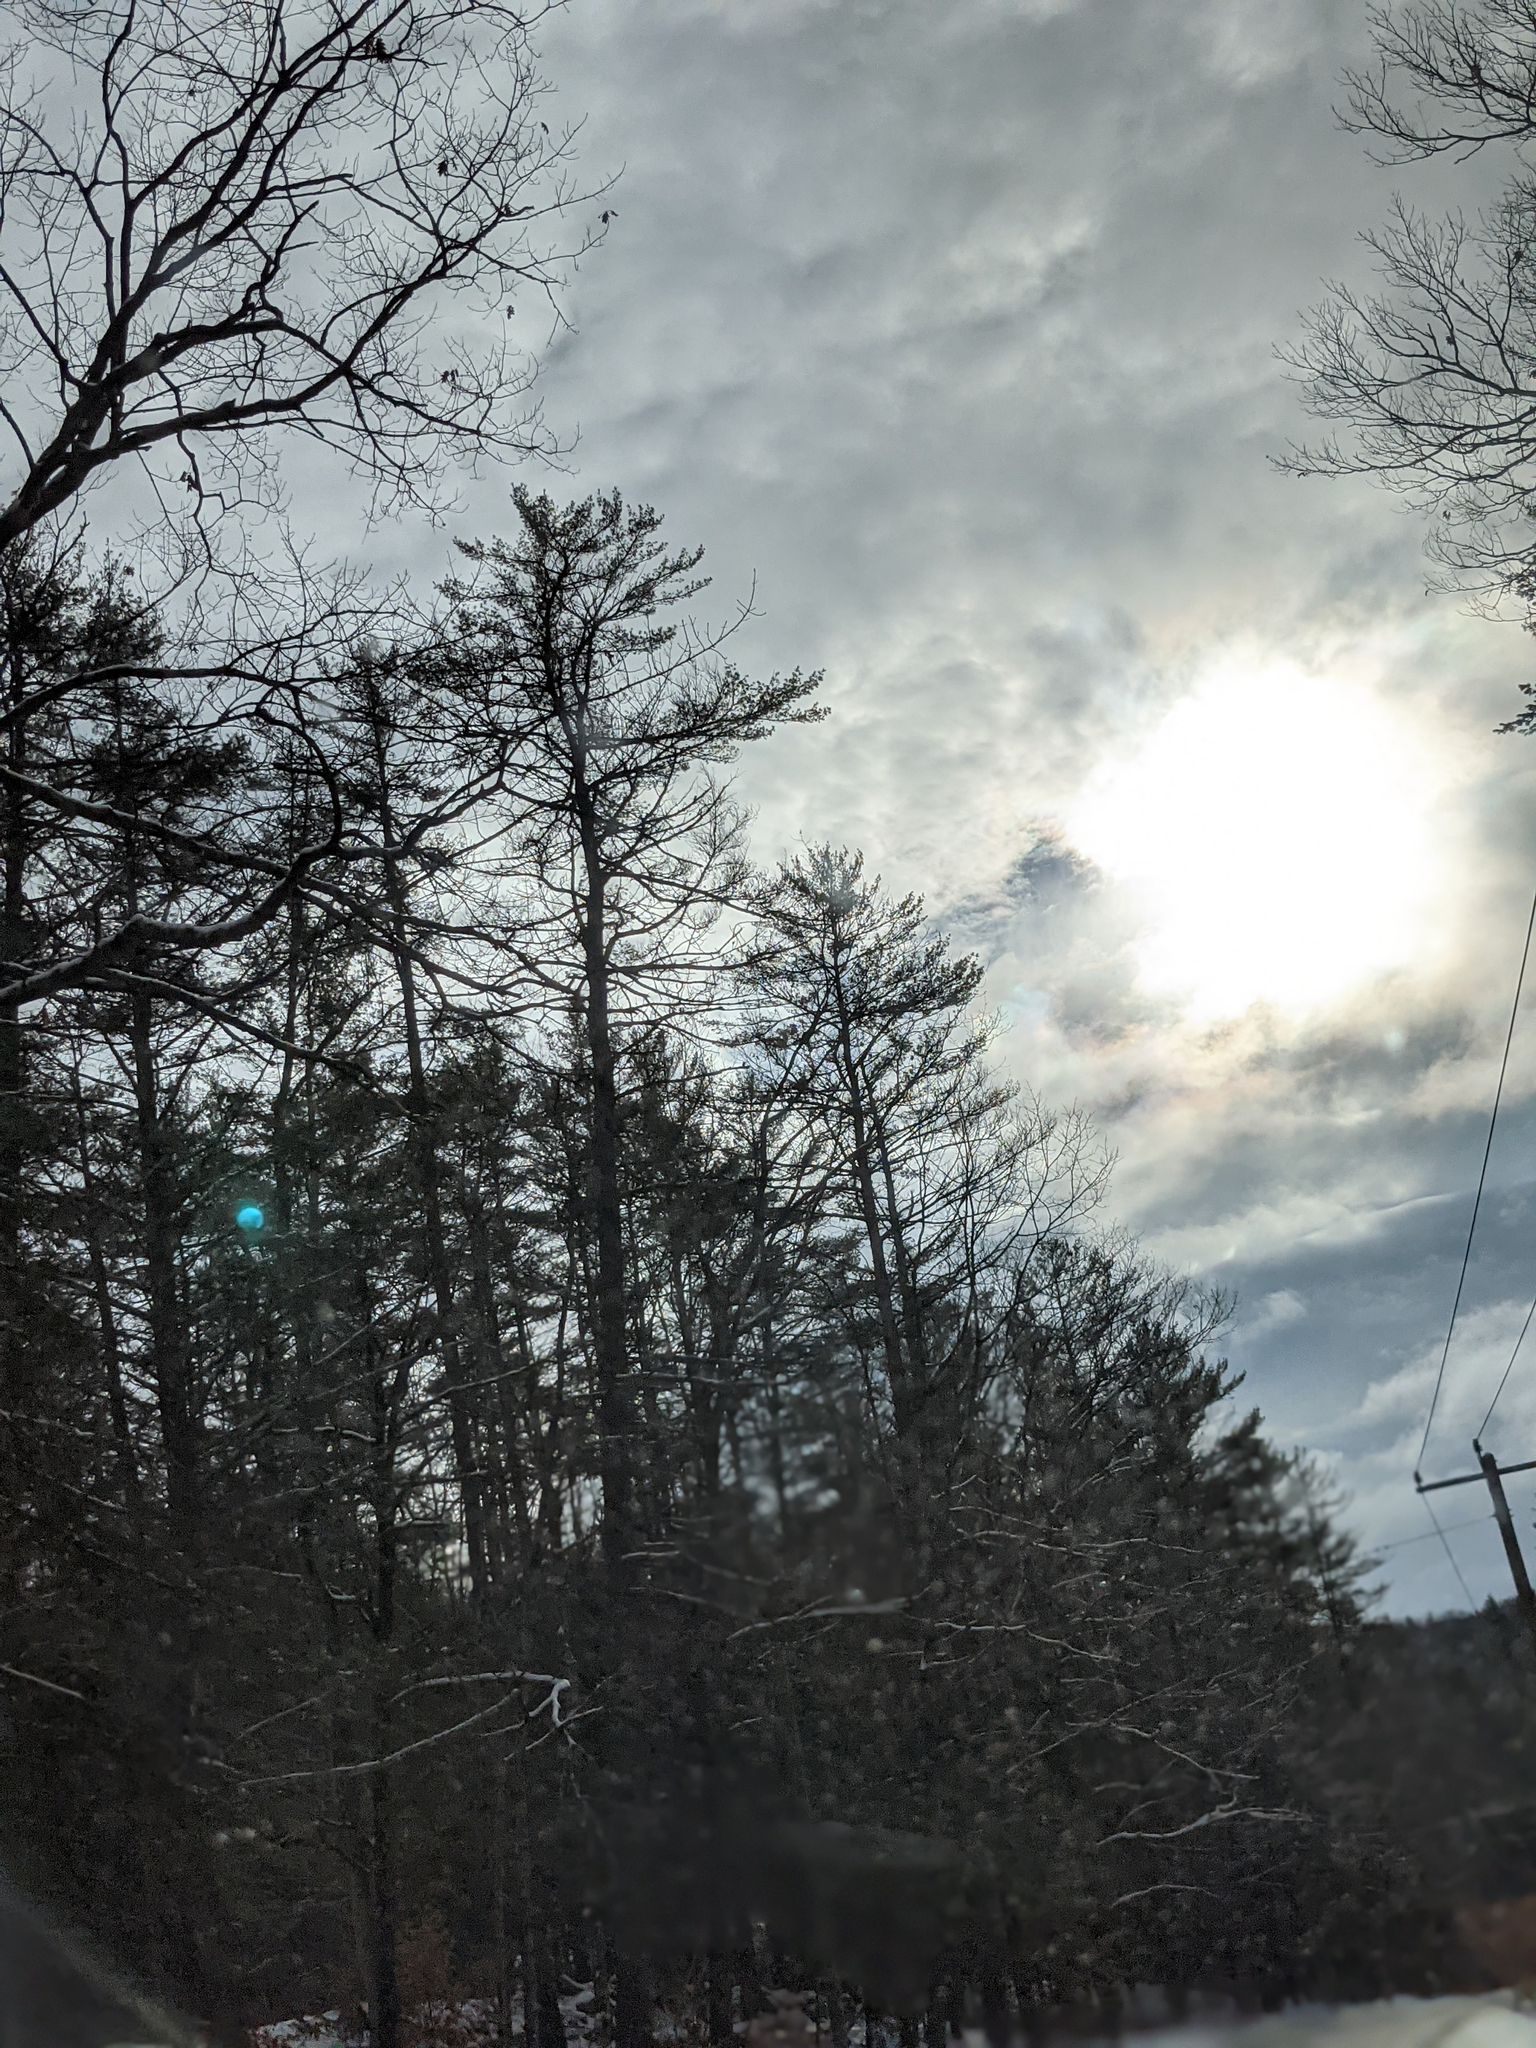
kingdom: Plantae
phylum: Tracheophyta
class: Pinopsida
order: Pinales
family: Pinaceae
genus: Pinus
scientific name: Pinus strobus
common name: Weymouth pine
